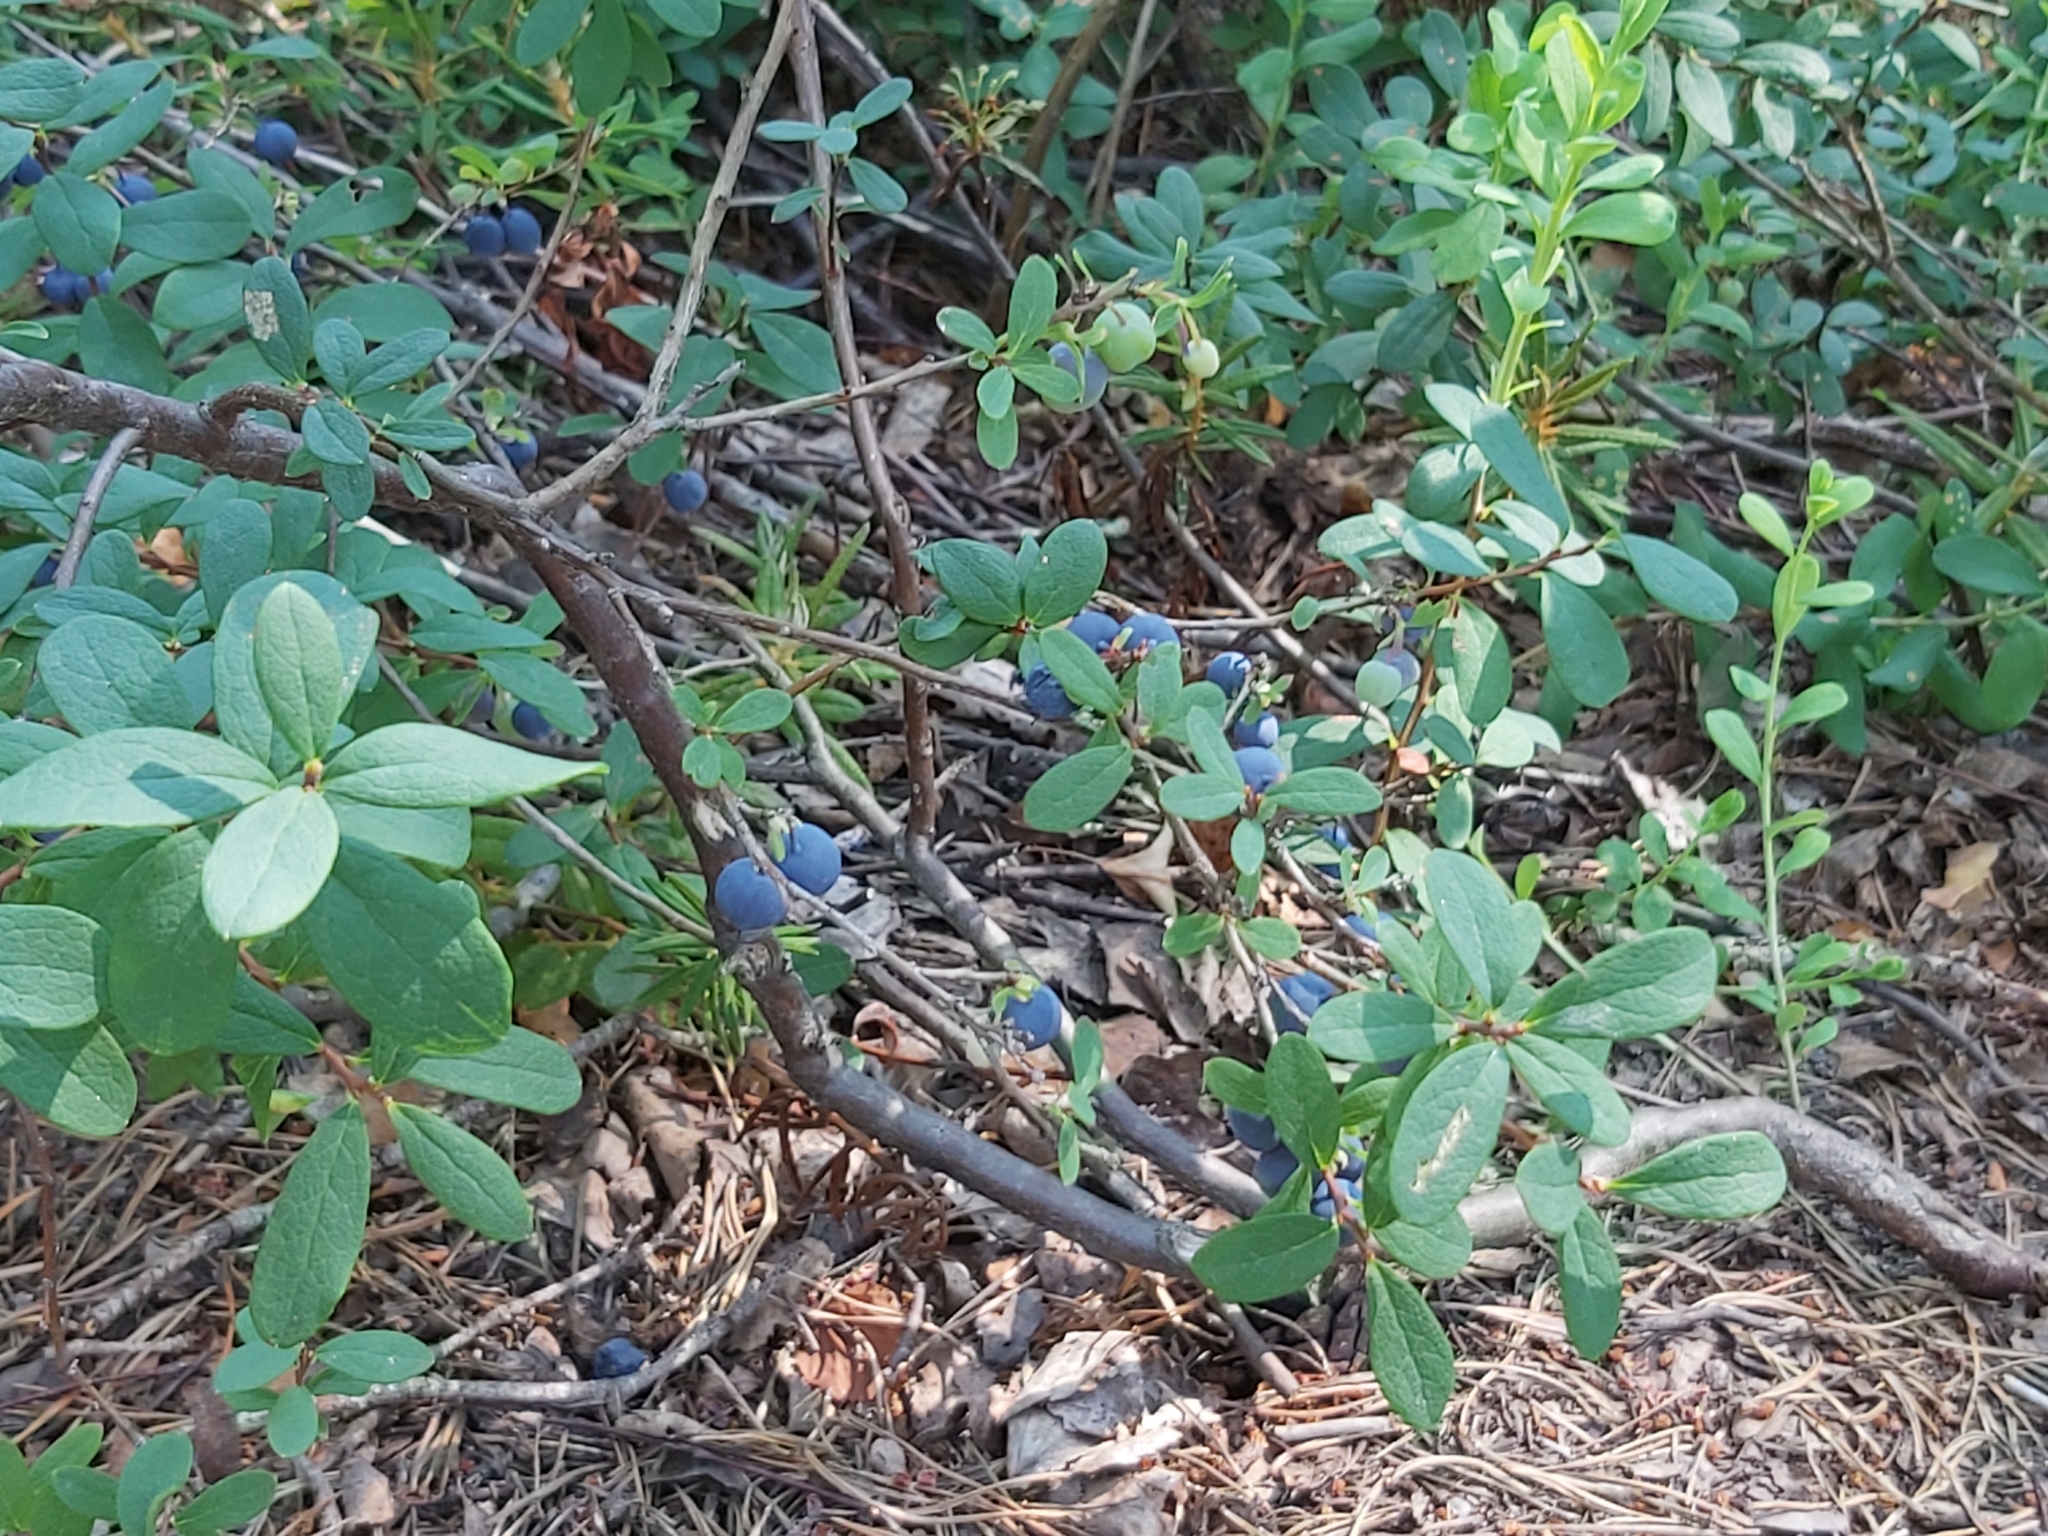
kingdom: Plantae
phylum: Tracheophyta
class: Magnoliopsida
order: Ericales
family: Ericaceae
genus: Vaccinium
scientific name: Vaccinium uliginosum
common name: Bog bilberry
